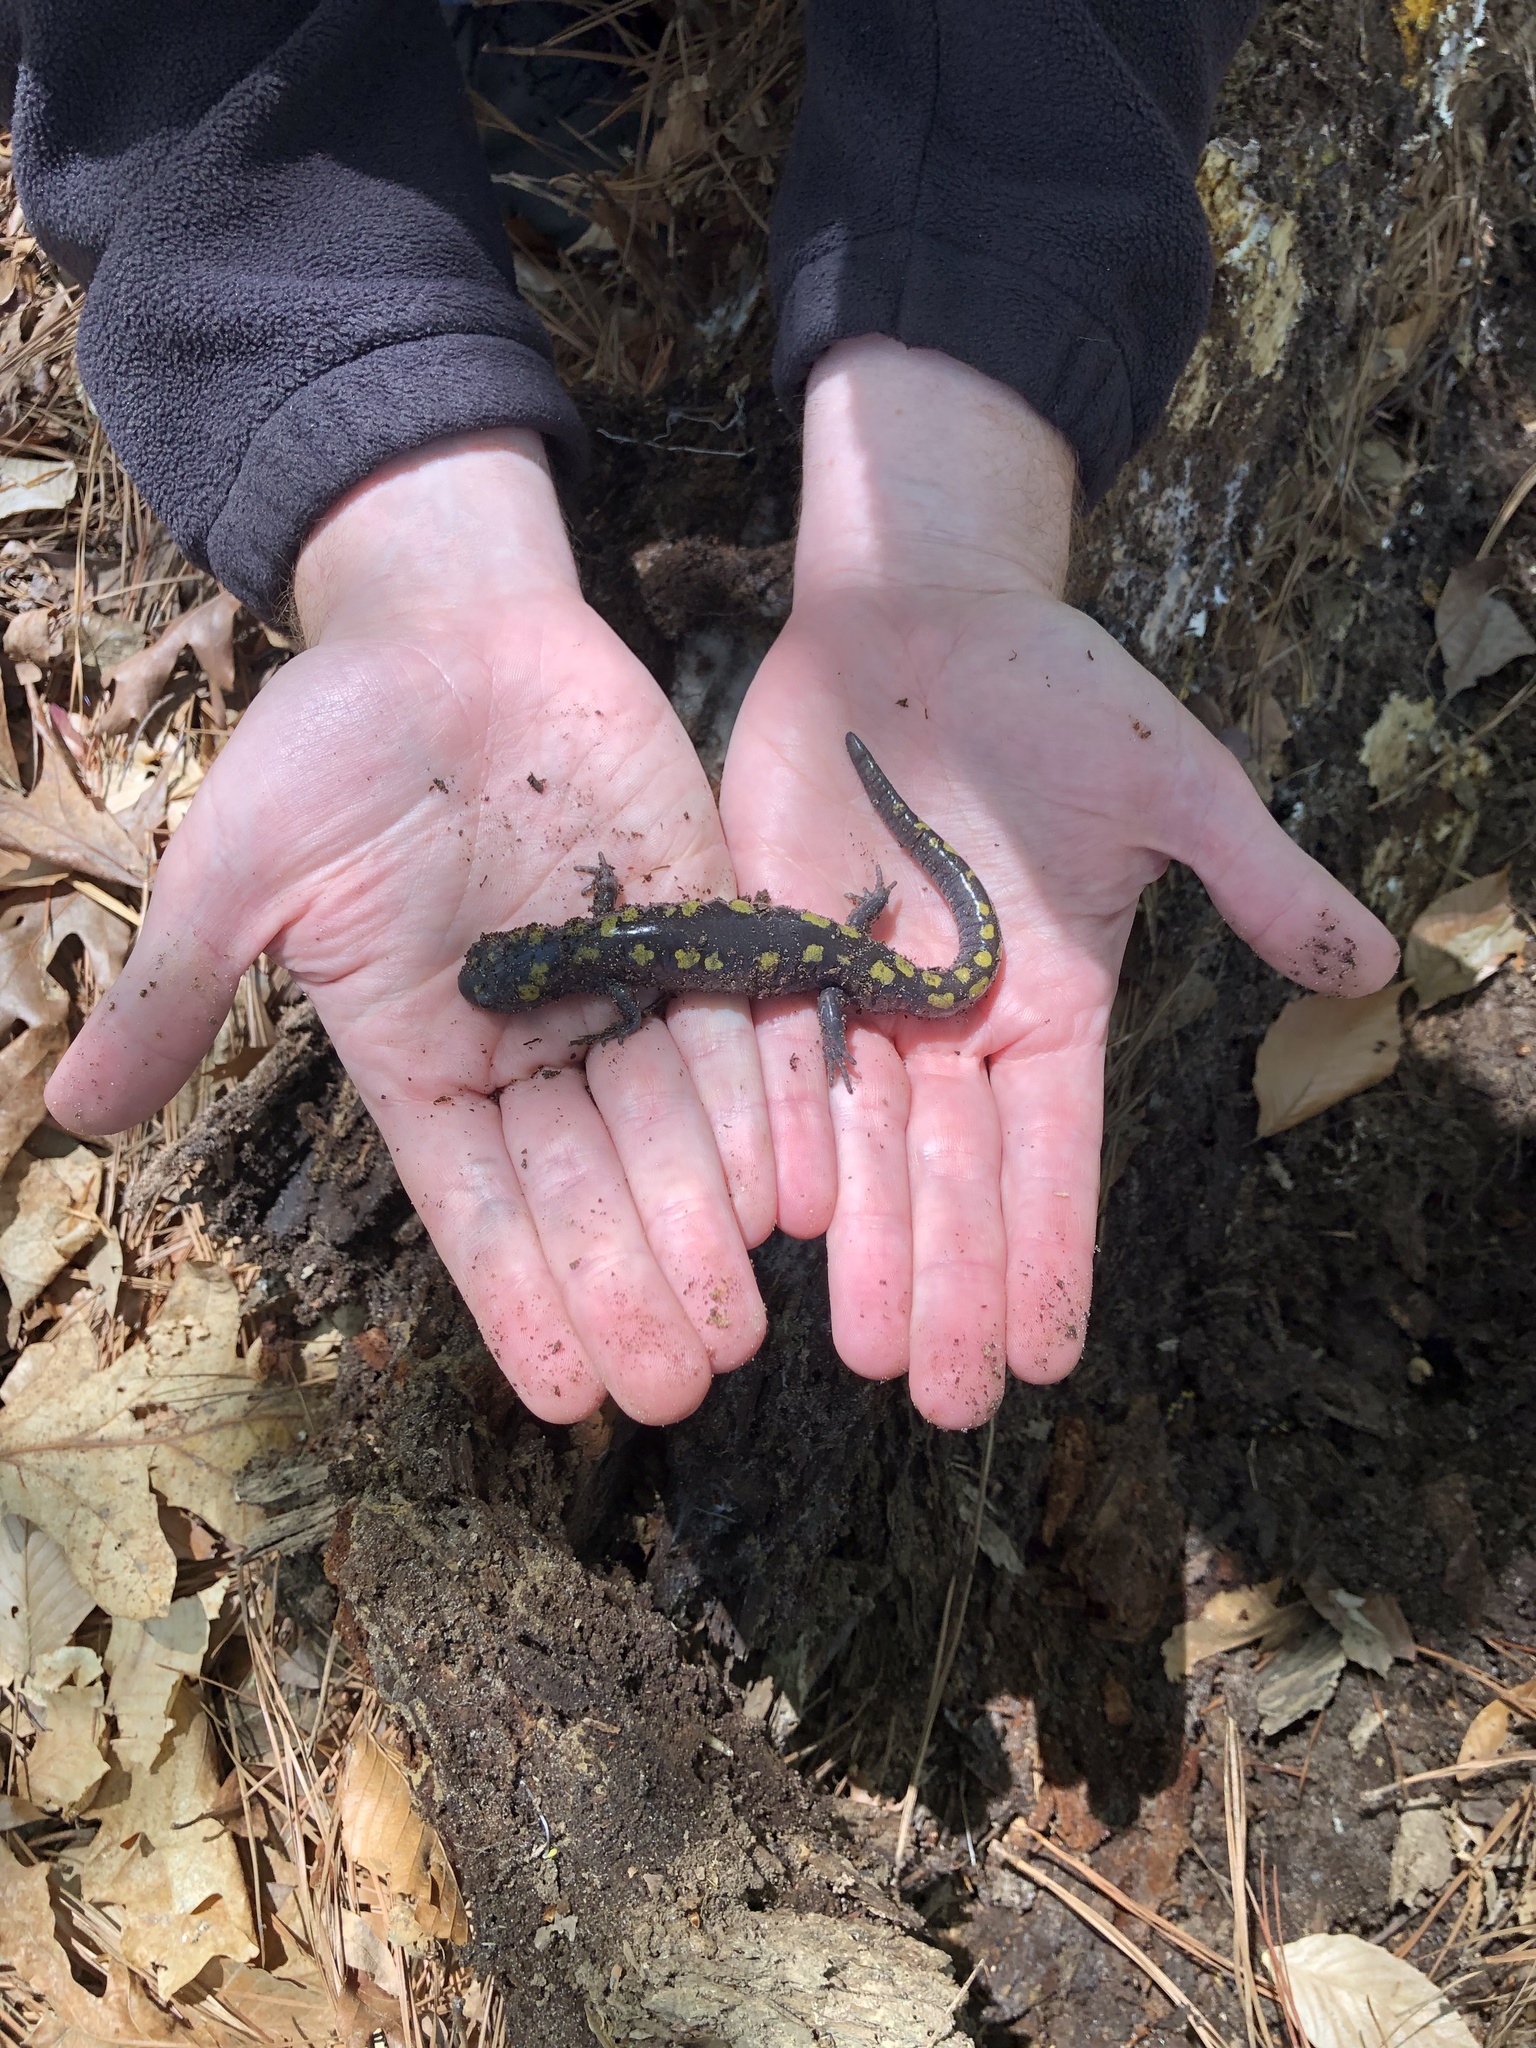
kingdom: Animalia
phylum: Chordata
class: Amphibia
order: Caudata
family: Ambystomatidae
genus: Ambystoma
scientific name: Ambystoma maculatum
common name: Spotted salamander
